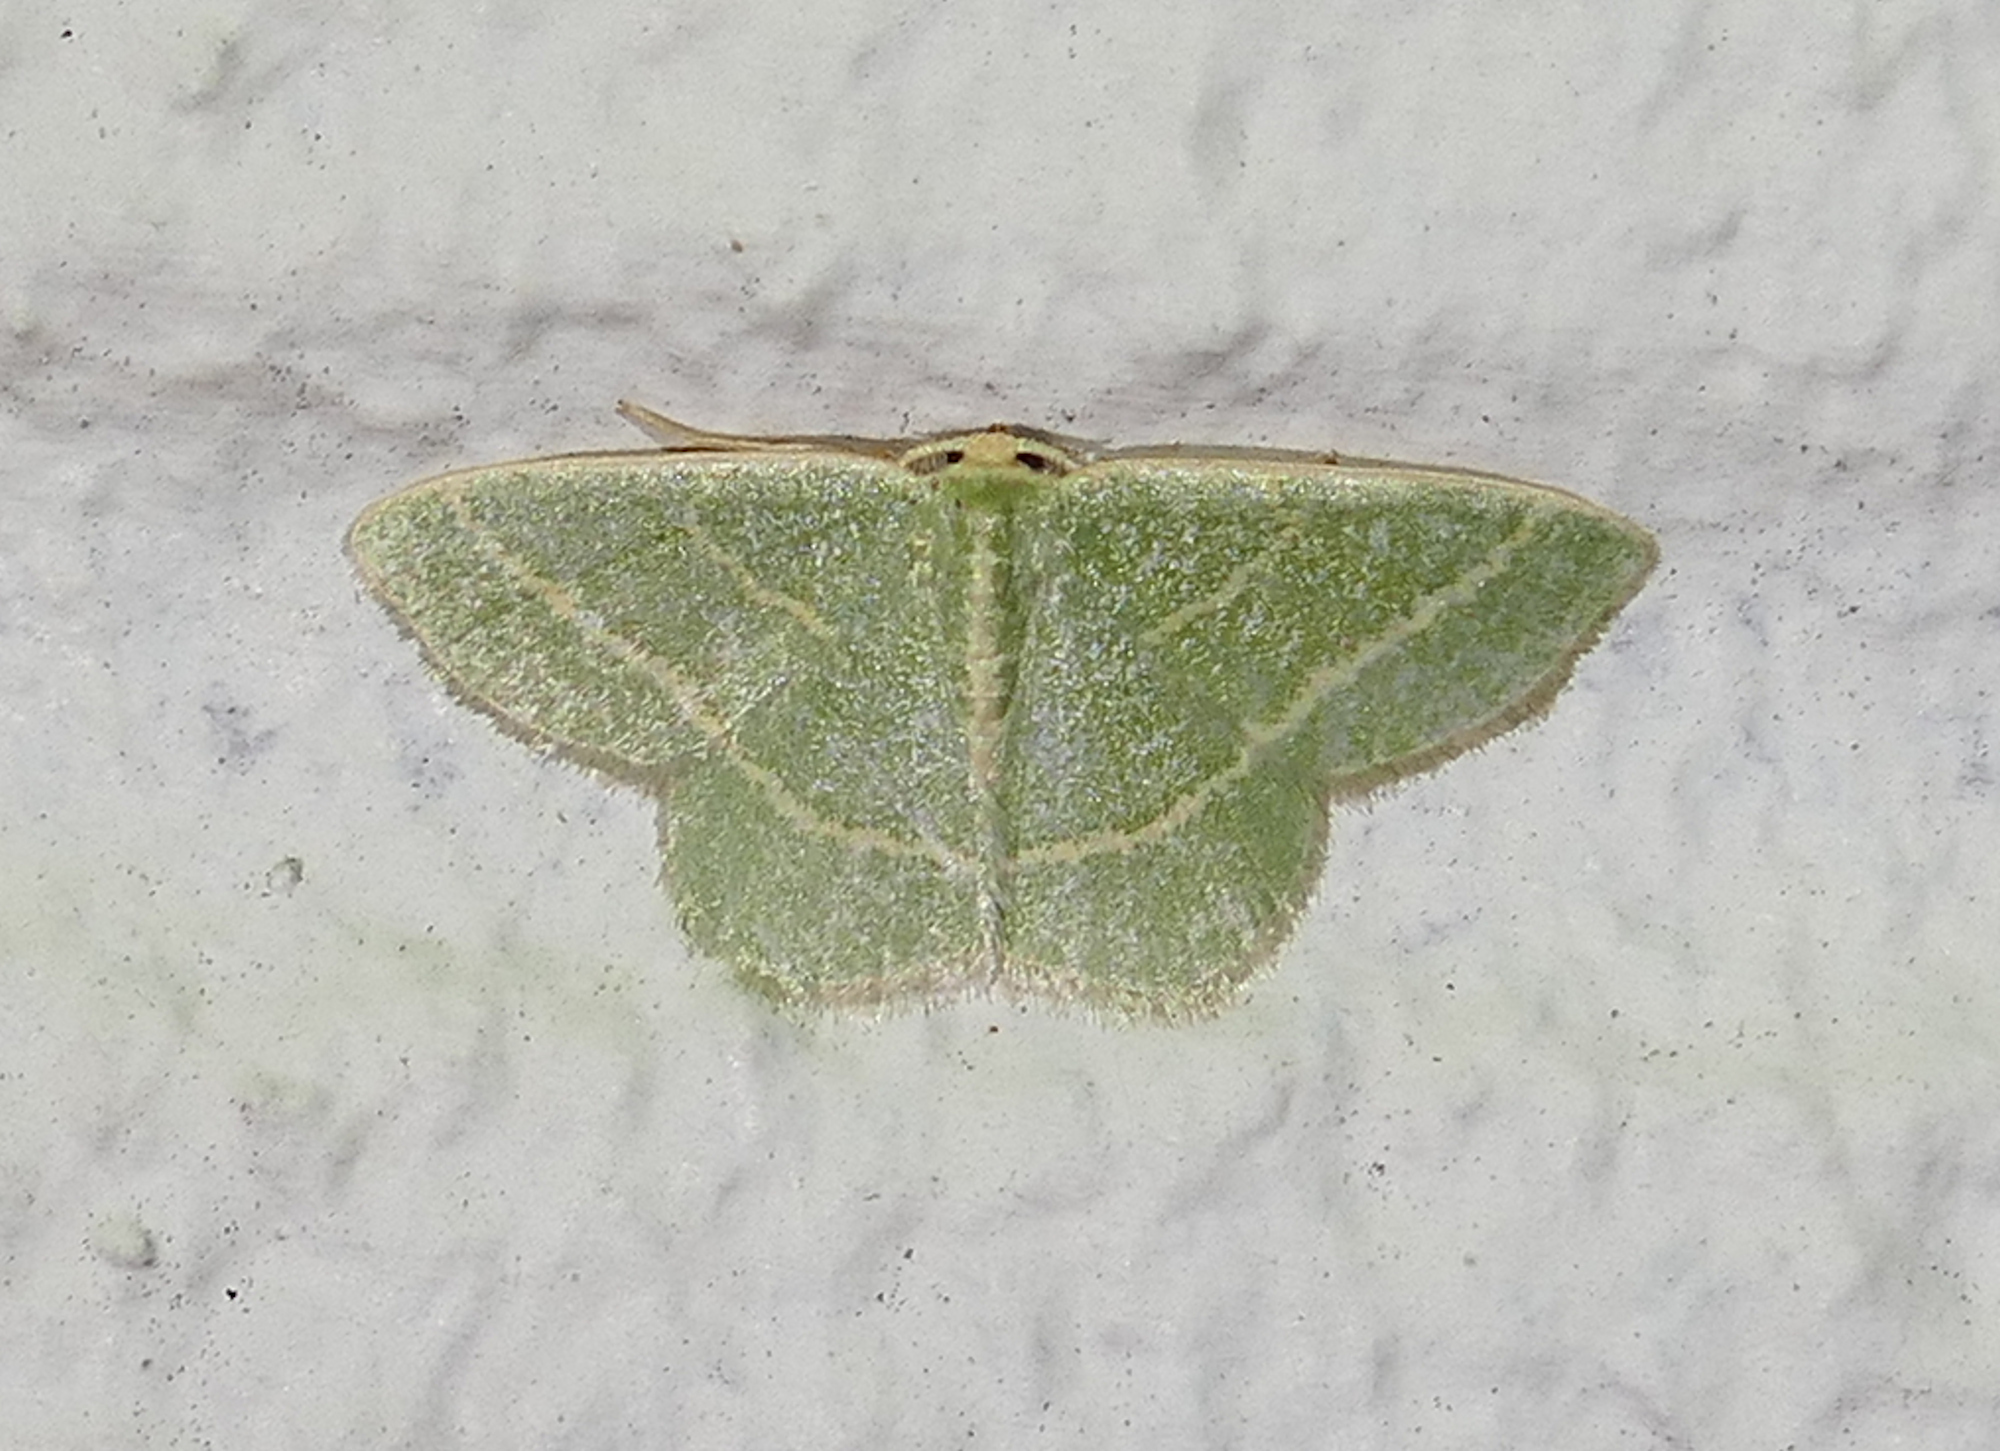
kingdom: Animalia
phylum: Arthropoda
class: Insecta
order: Lepidoptera
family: Geometridae
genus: Chlorochlamys
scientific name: Chlorochlamys chloroleucaria
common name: Blackberry looper
